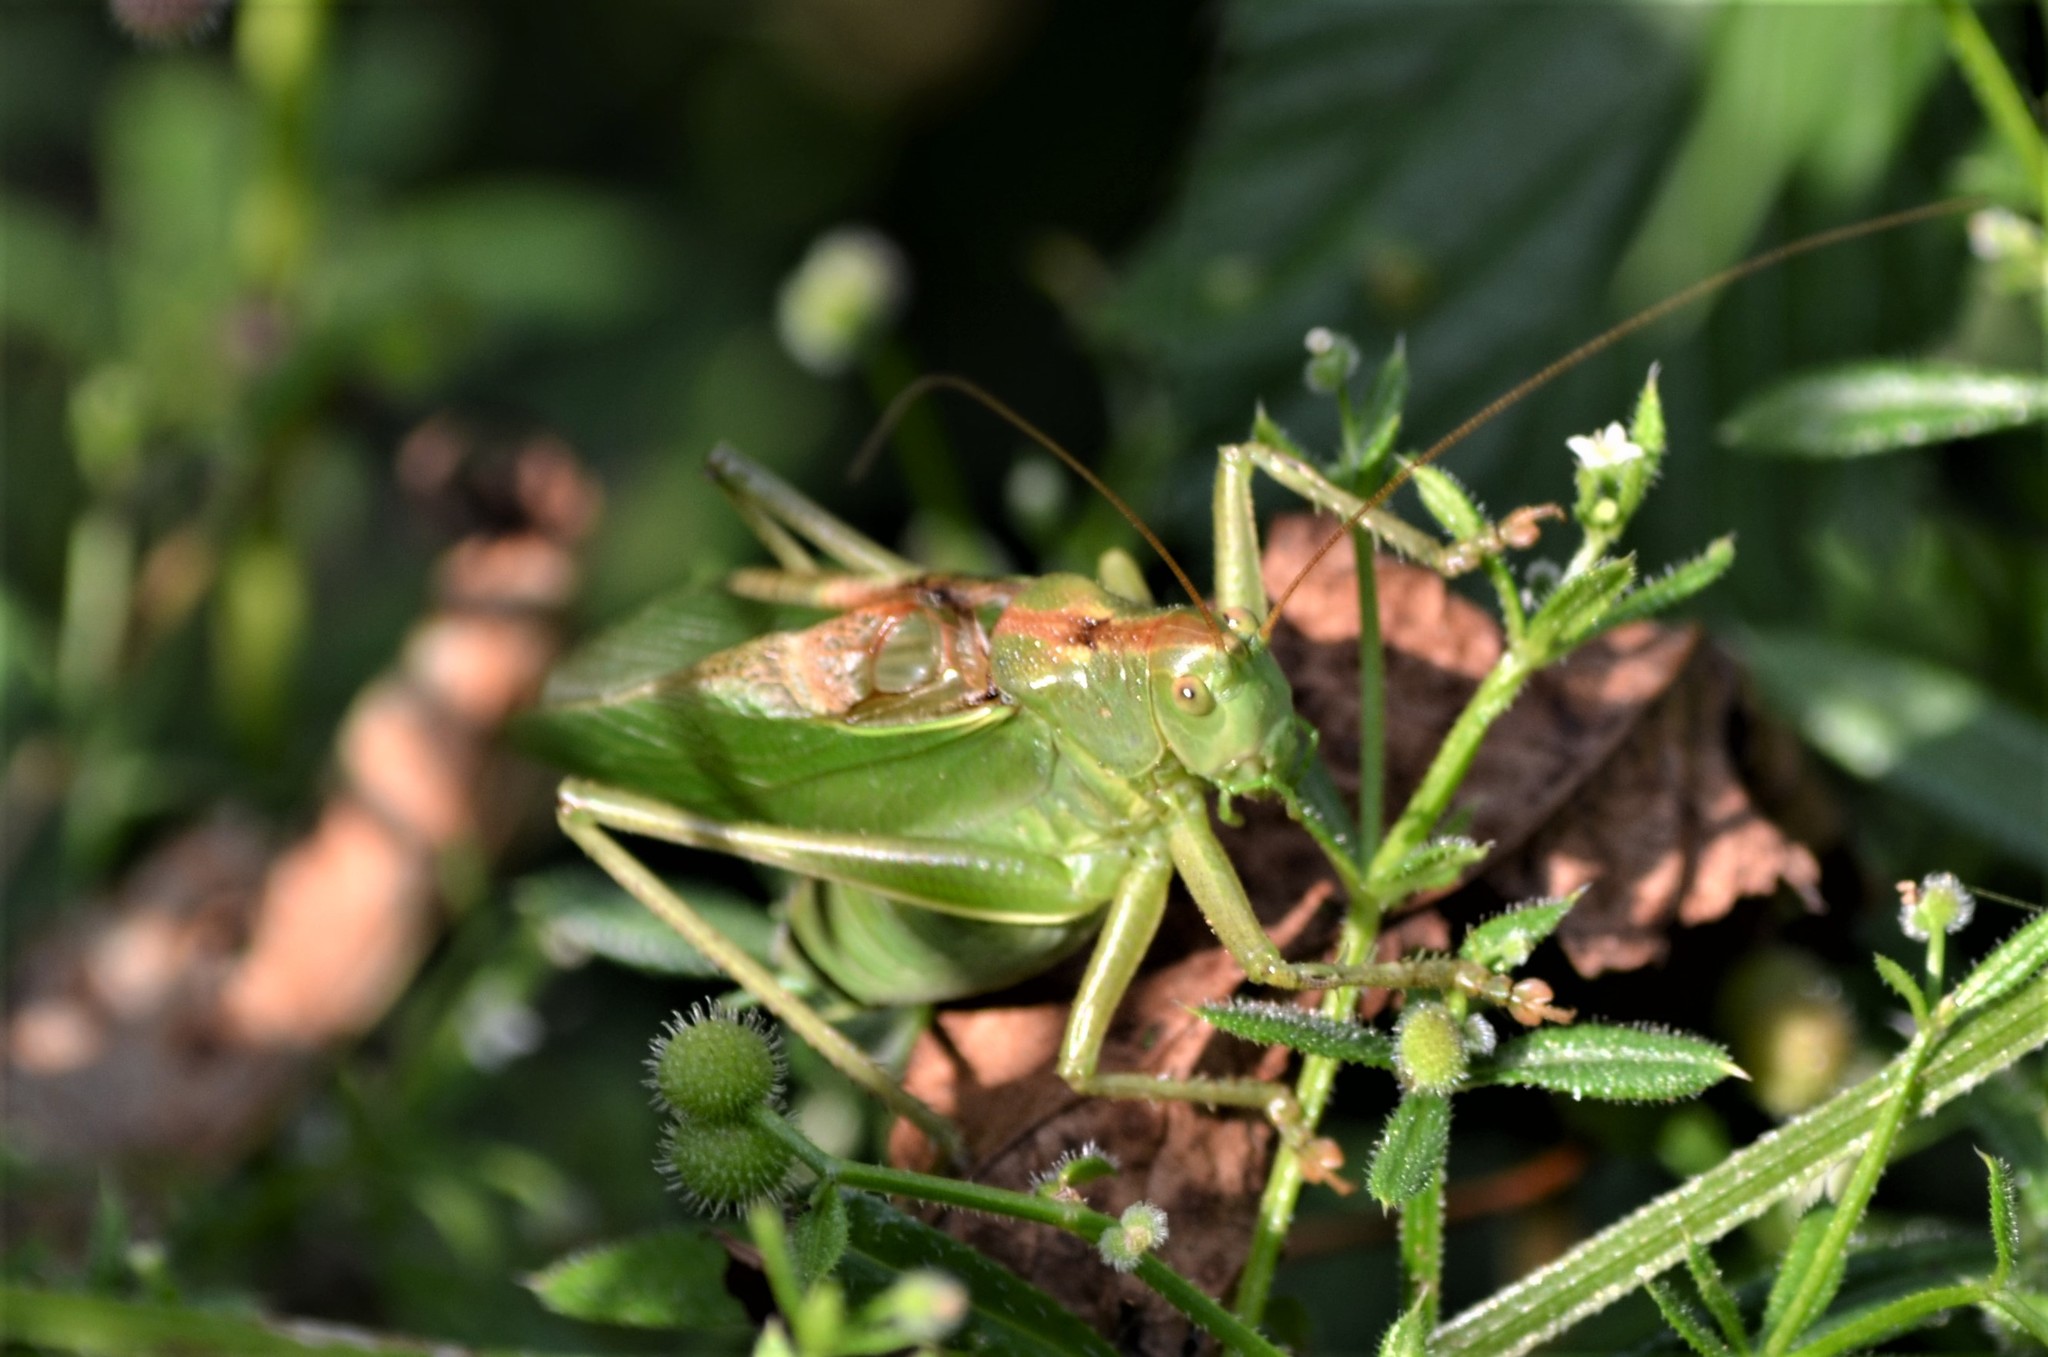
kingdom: Animalia
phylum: Arthropoda
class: Insecta
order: Orthoptera
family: Tettigoniidae
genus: Tettigonia
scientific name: Tettigonia cantans
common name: Upland green bush-cricket
